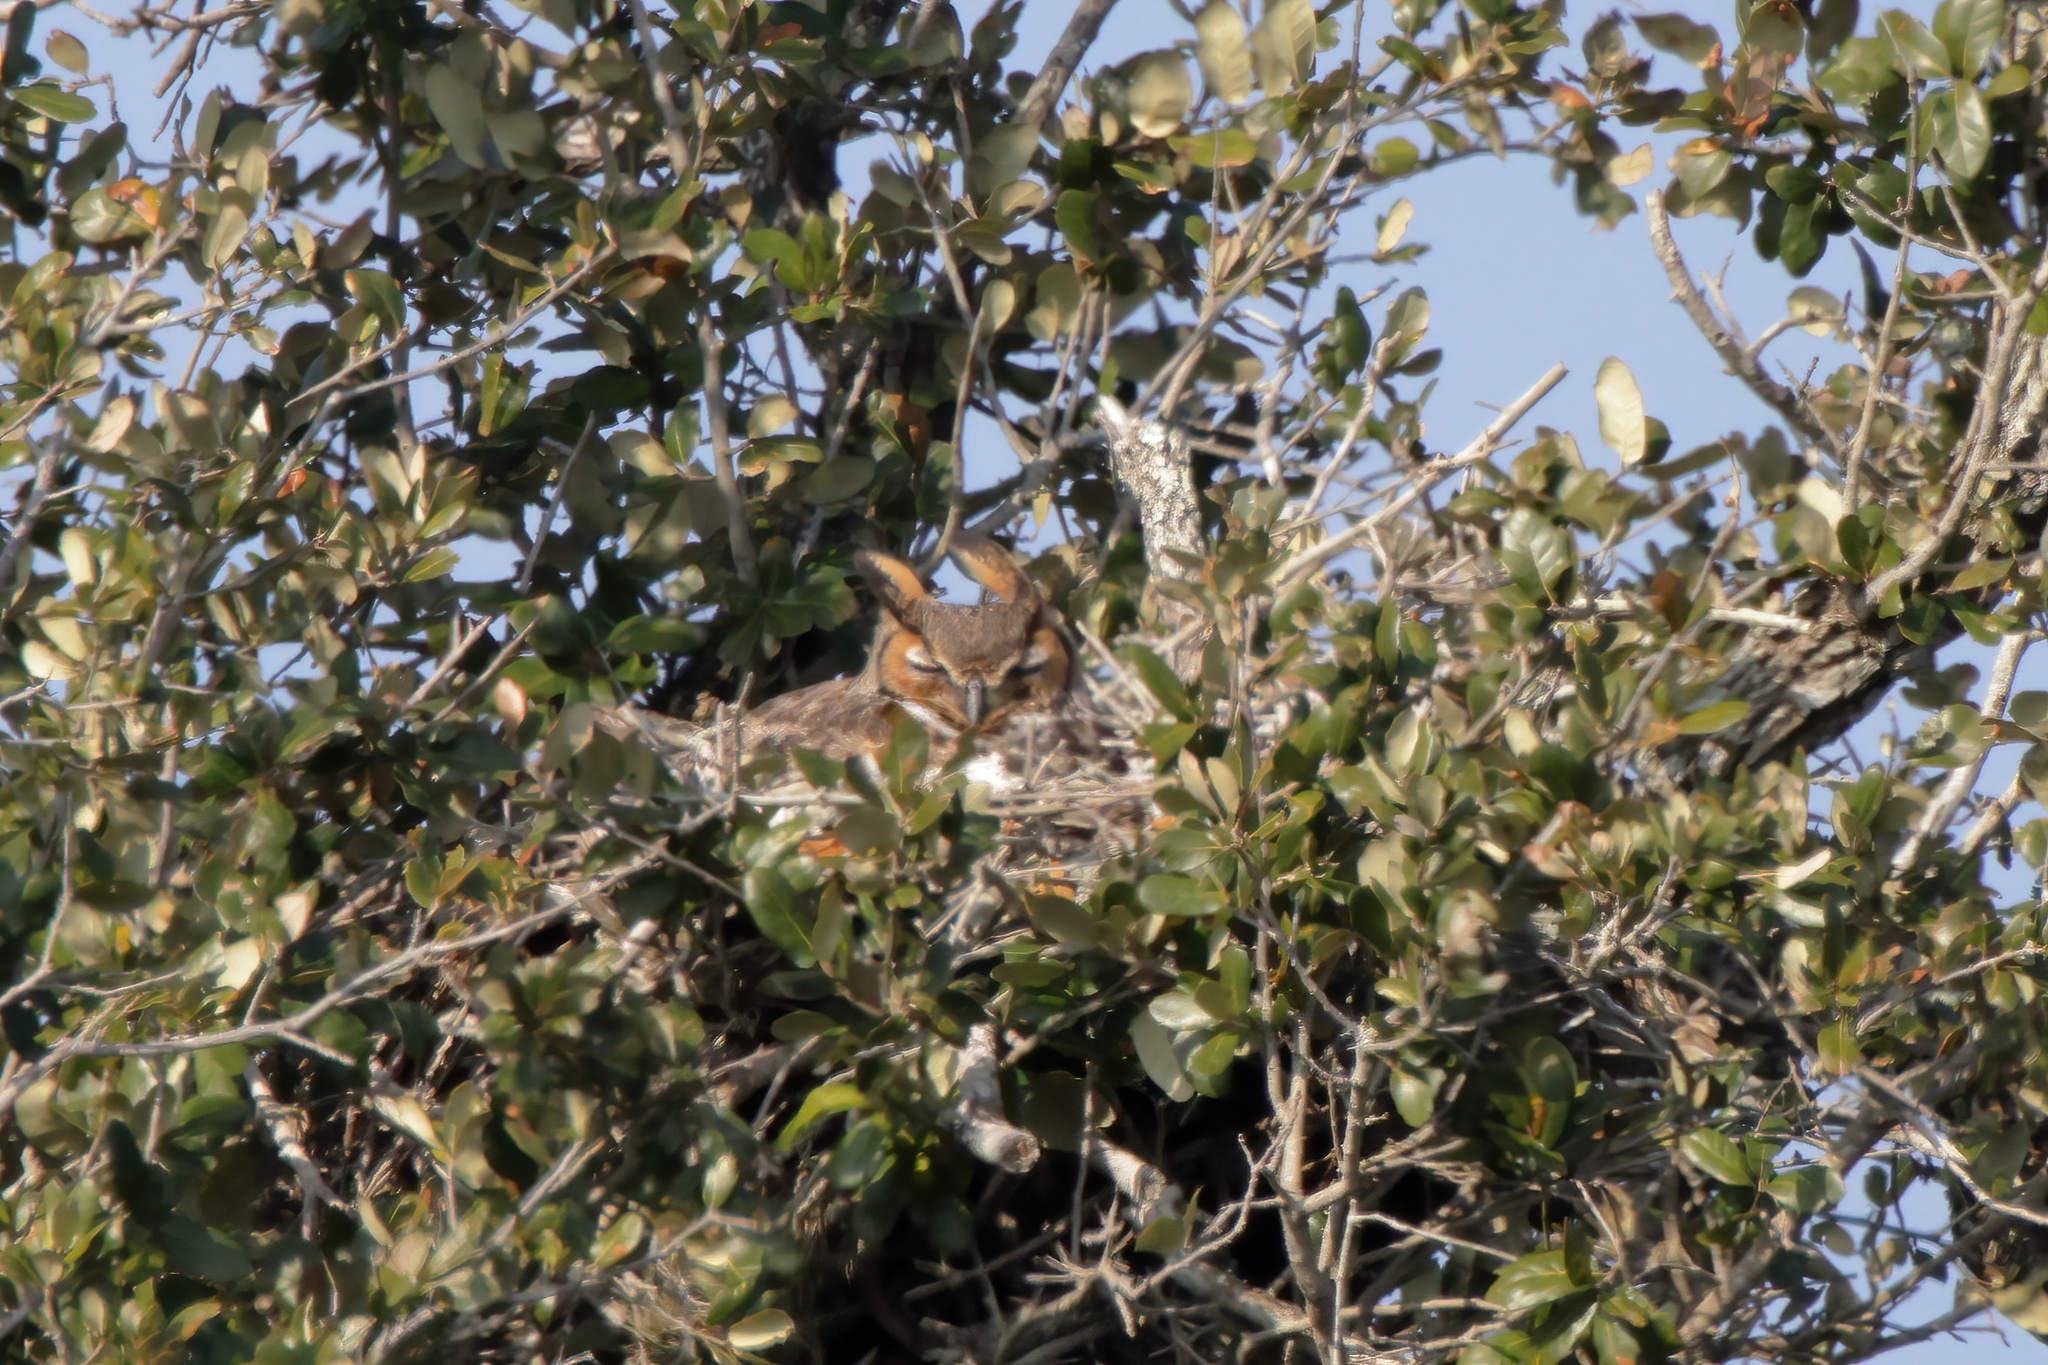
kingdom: Animalia
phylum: Chordata
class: Aves
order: Strigiformes
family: Strigidae
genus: Bubo
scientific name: Bubo virginianus
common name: Great horned owl
